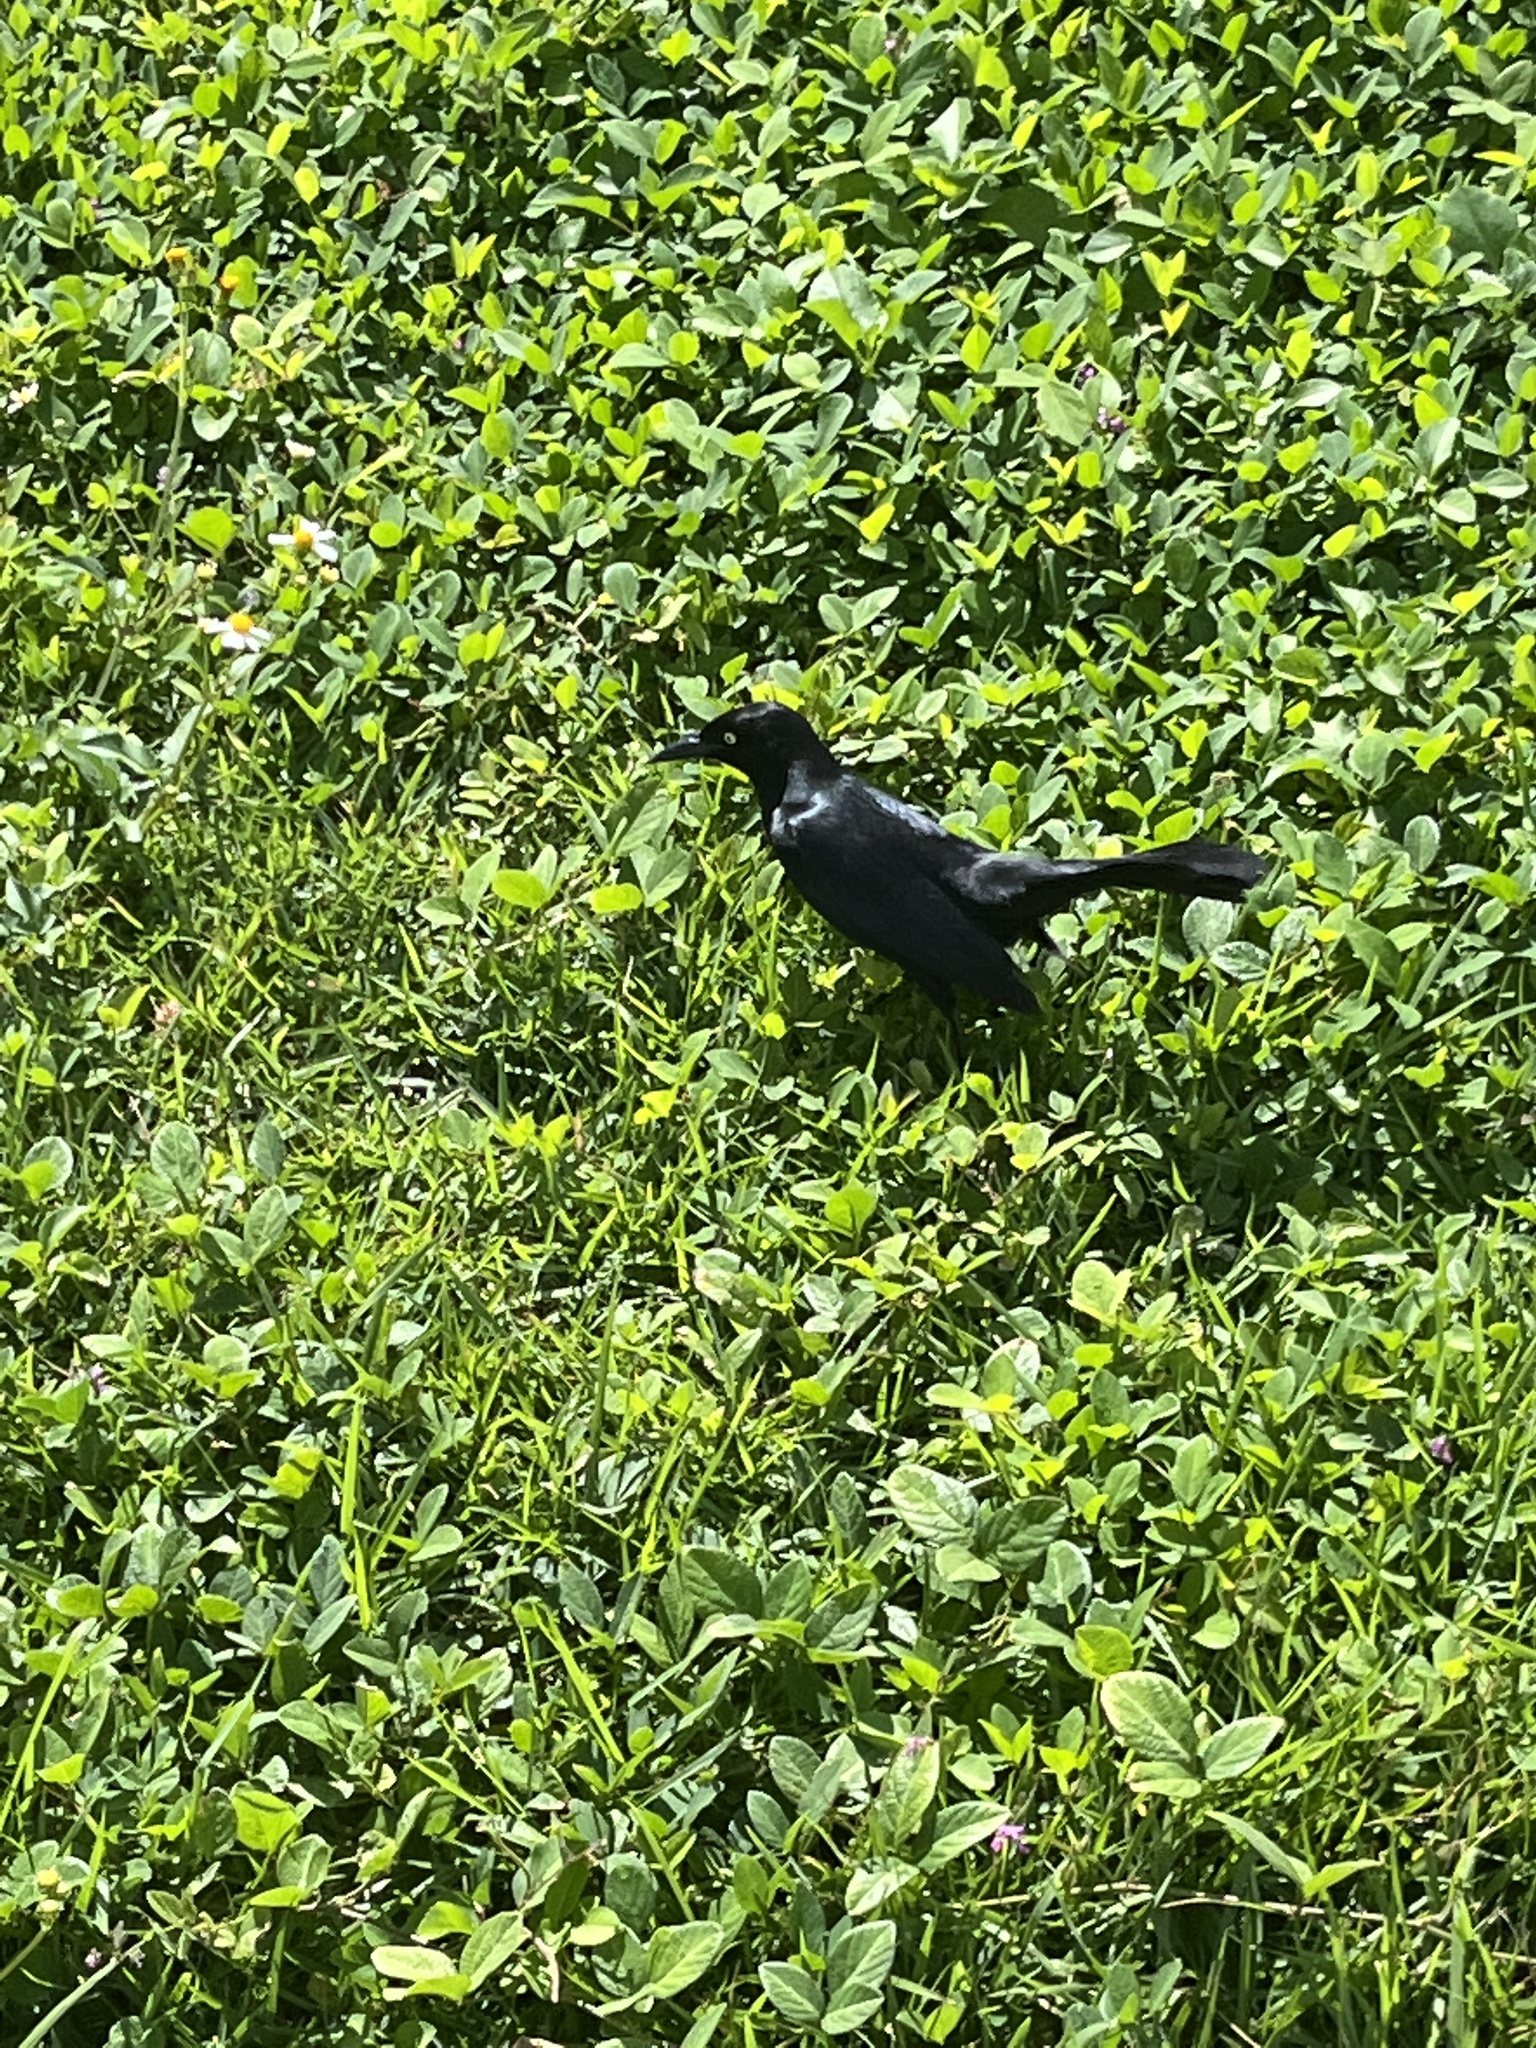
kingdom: Animalia
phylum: Chordata
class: Aves
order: Passeriformes
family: Icteridae
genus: Quiscalus
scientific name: Quiscalus niger
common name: Greater antillean grackle
